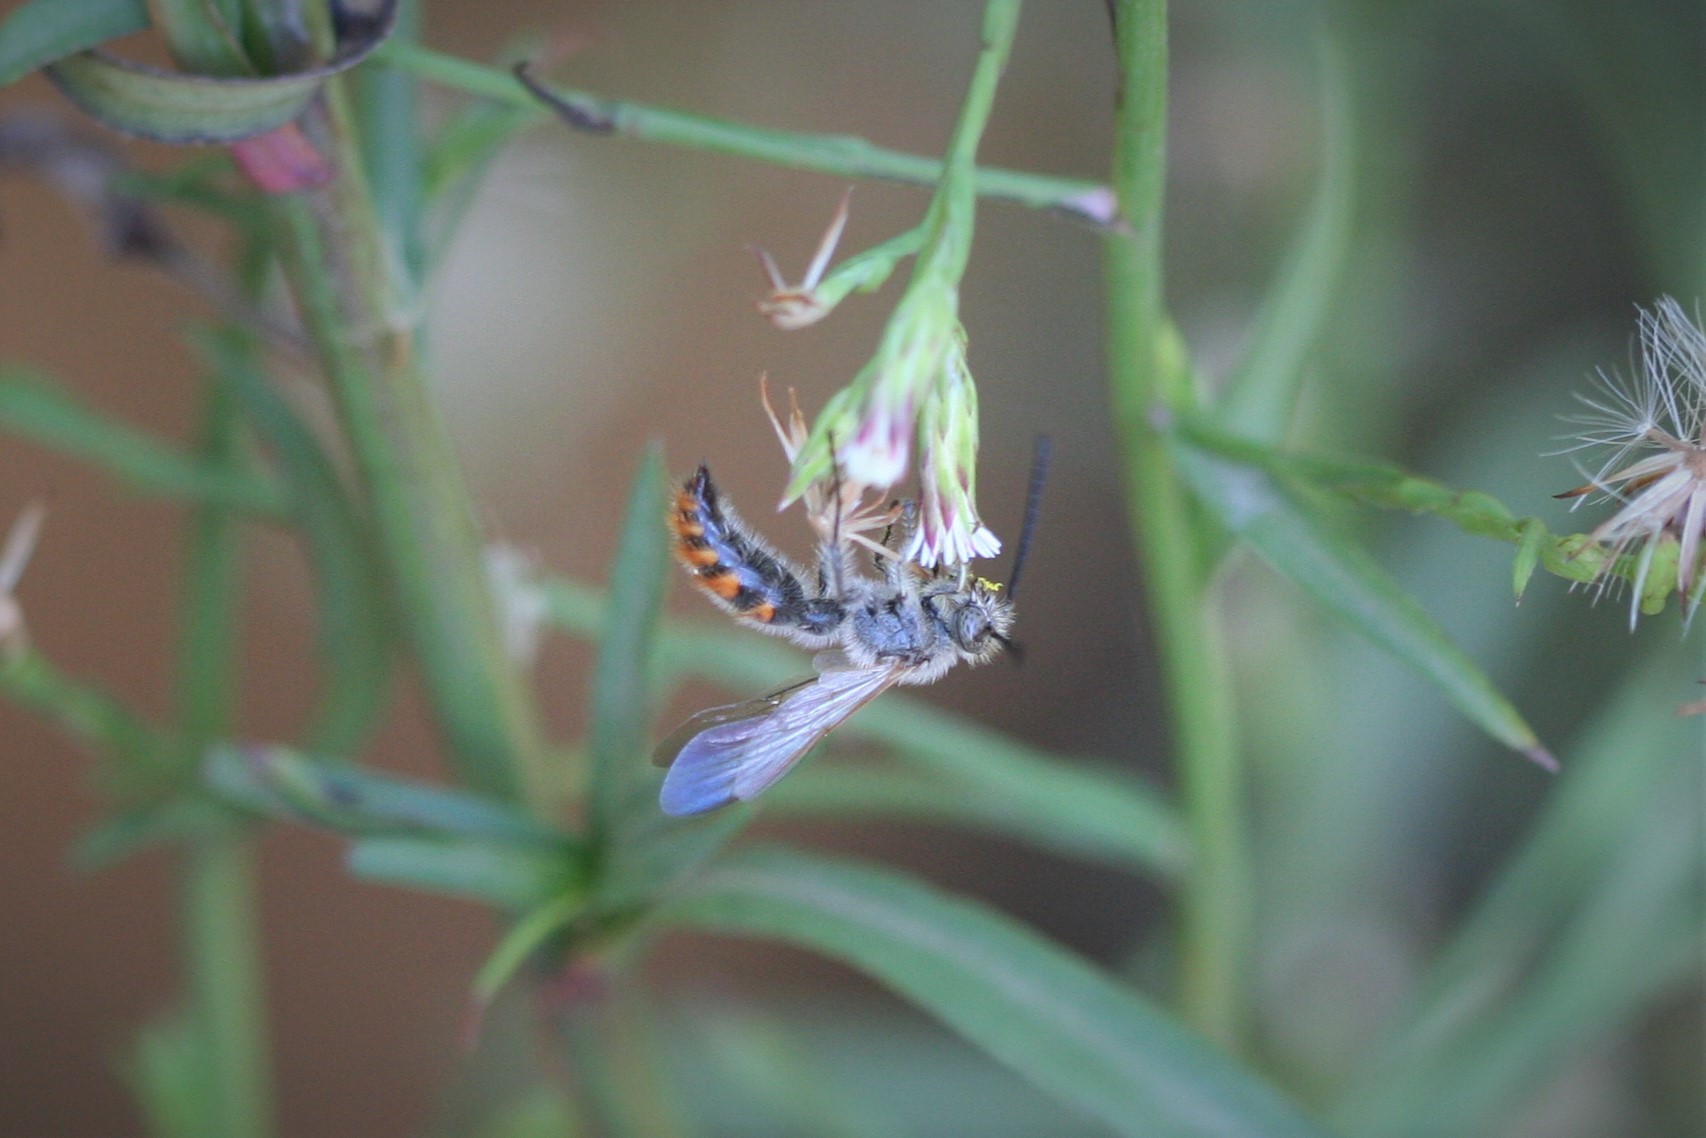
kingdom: Animalia
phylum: Arthropoda
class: Insecta
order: Hymenoptera
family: Scoliidae
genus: Campsomeriella
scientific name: Campsomeriella thoracica
